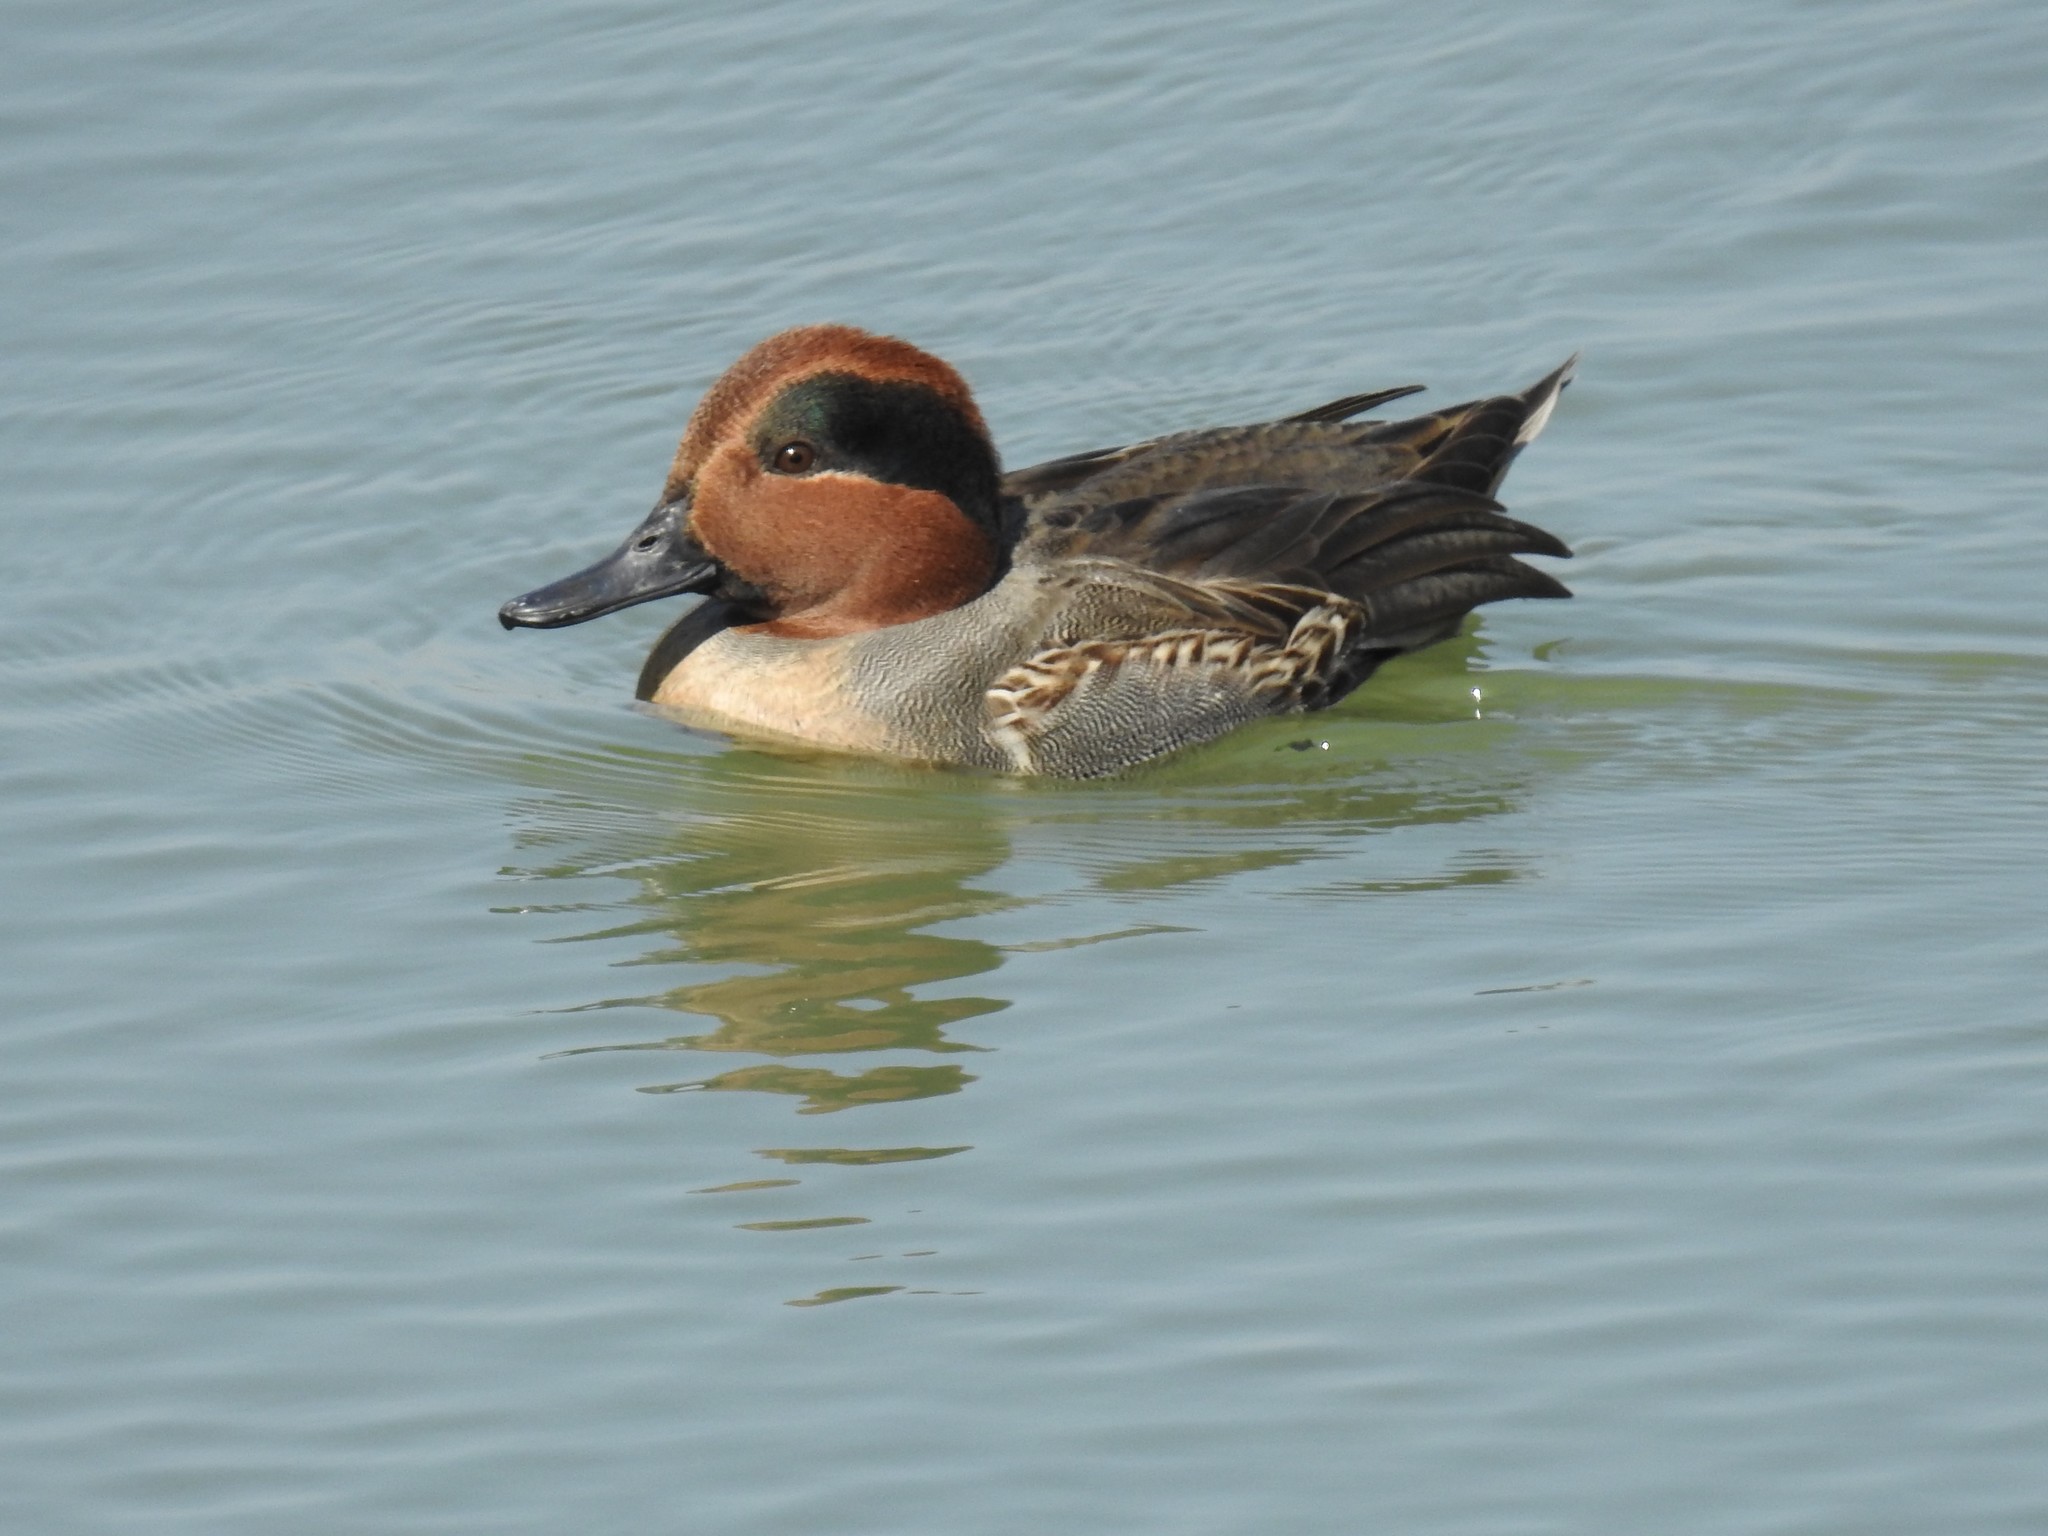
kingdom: Animalia
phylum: Chordata
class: Aves
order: Anseriformes
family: Anatidae
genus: Anas
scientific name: Anas crecca
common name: Eurasian teal
